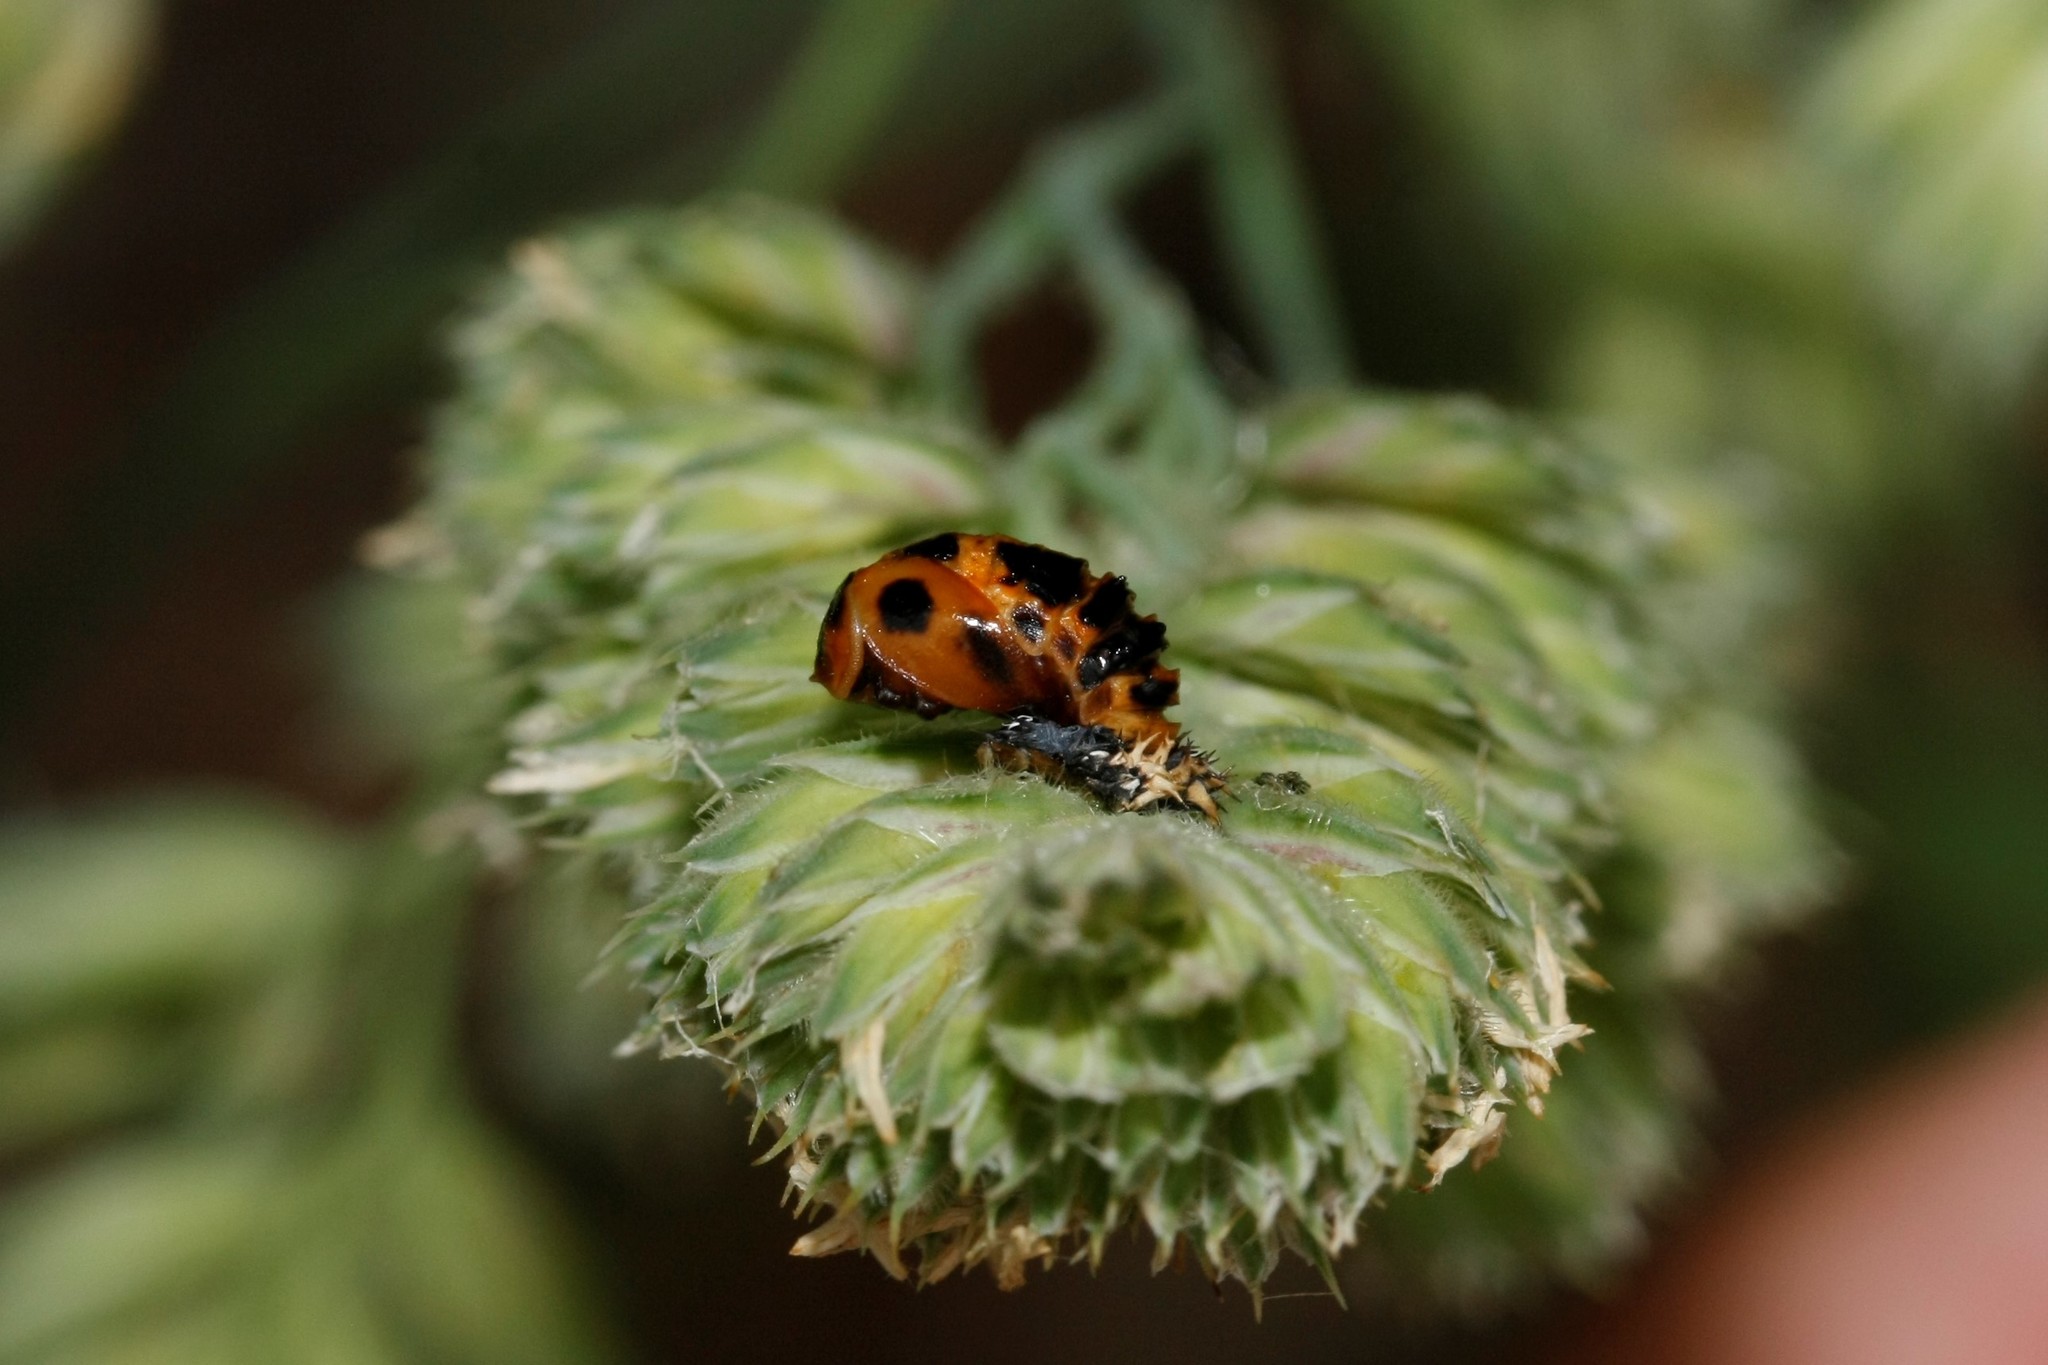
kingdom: Animalia
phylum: Arthropoda
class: Insecta
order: Coleoptera
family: Coccinellidae
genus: Harmonia
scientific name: Harmonia axyridis
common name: Harlequin ladybird
